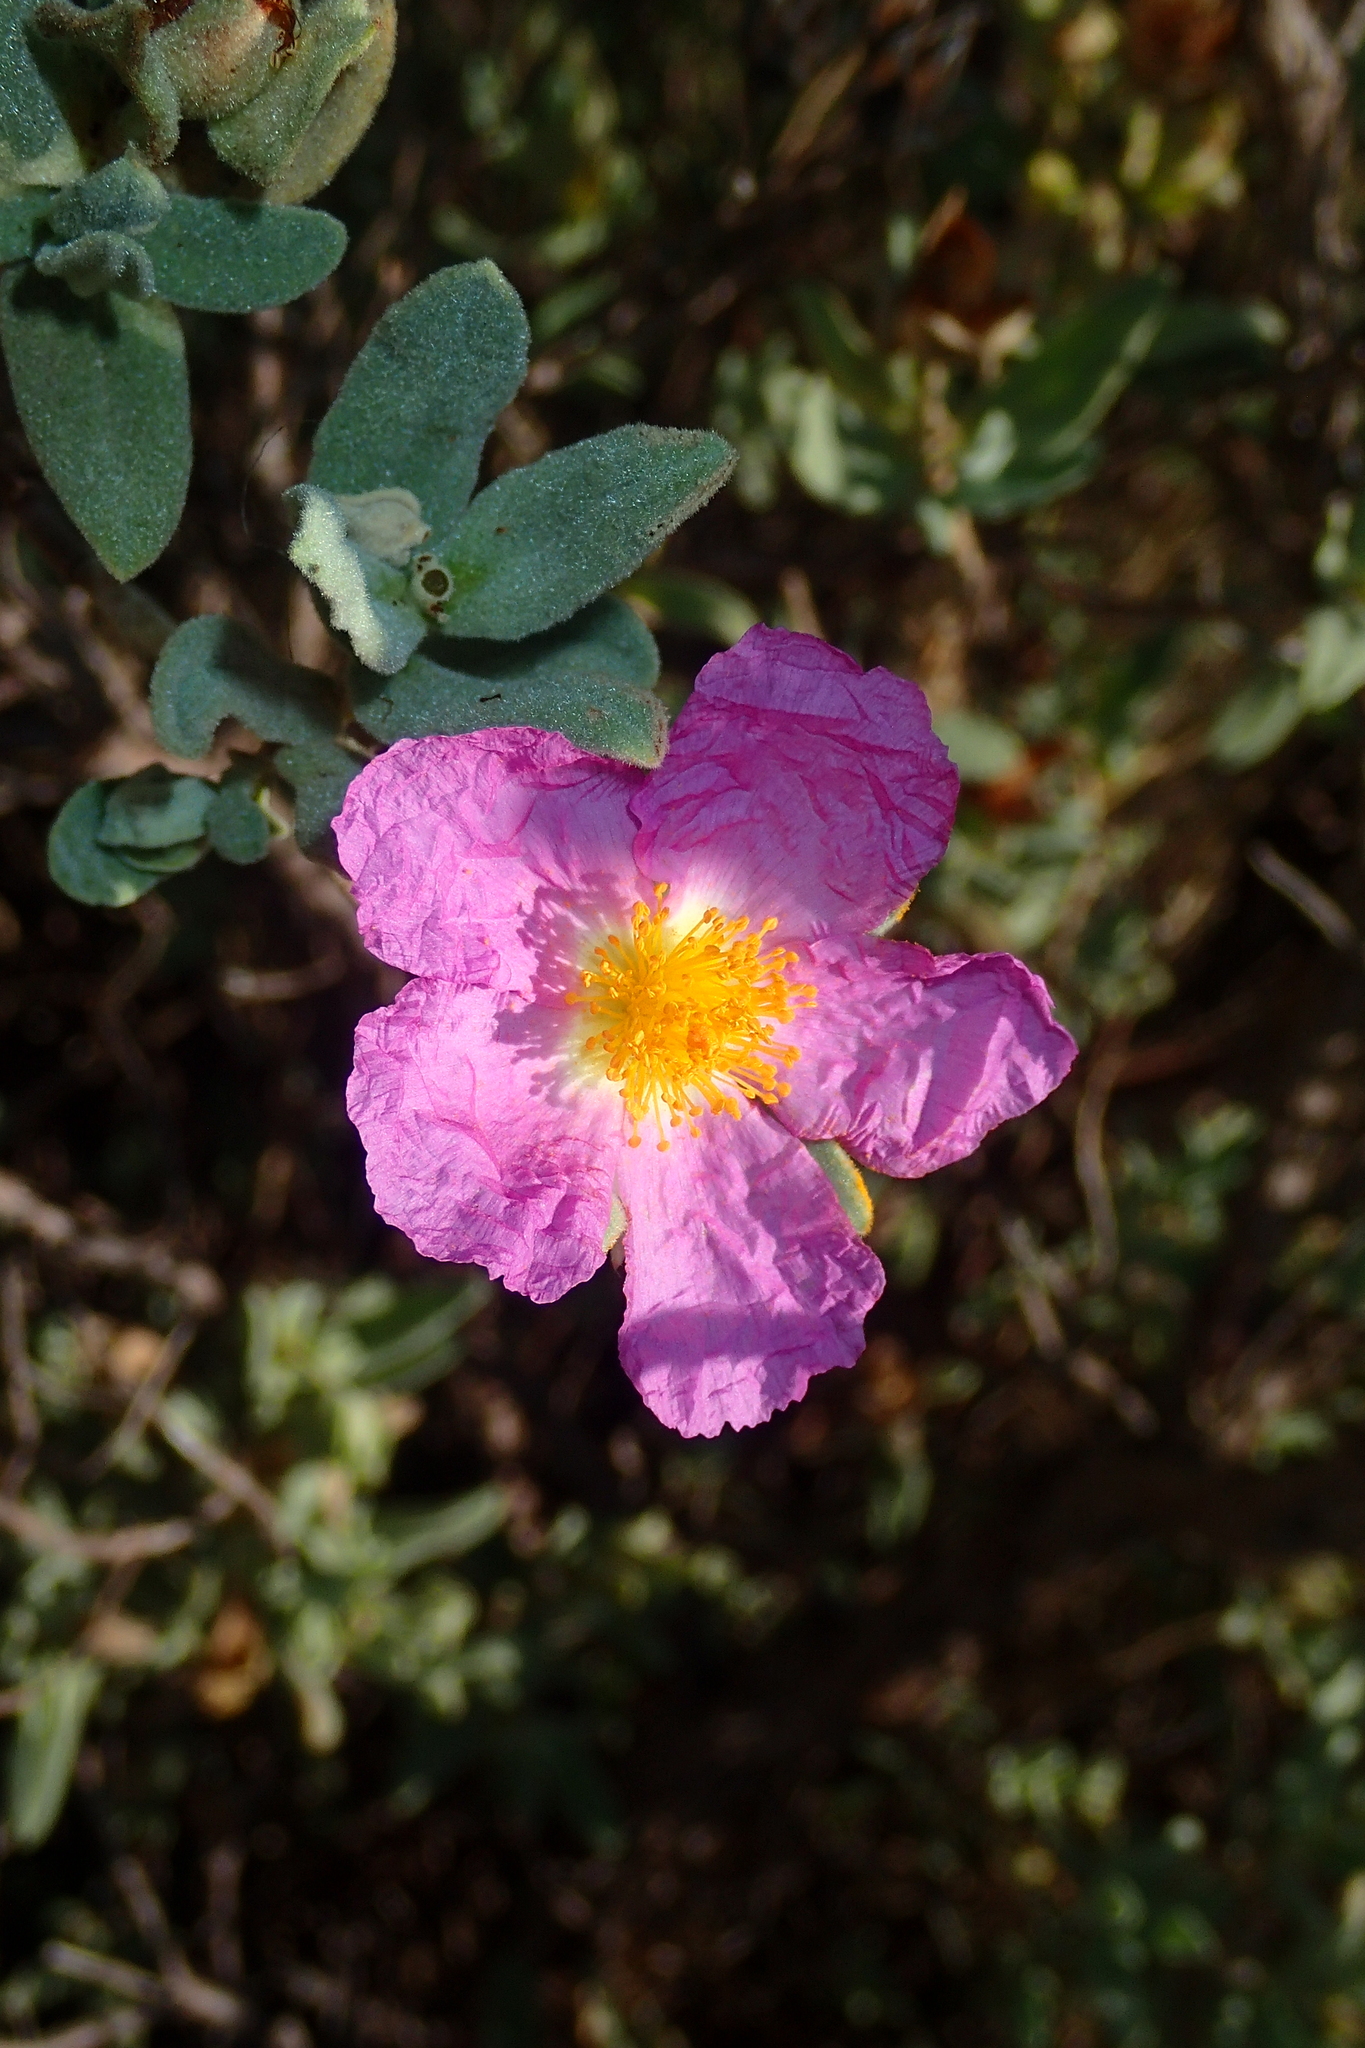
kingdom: Plantae
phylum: Tracheophyta
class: Magnoliopsida
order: Malvales
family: Cistaceae
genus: Cistus
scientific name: Cistus albidus
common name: White-leaf rock-rose
